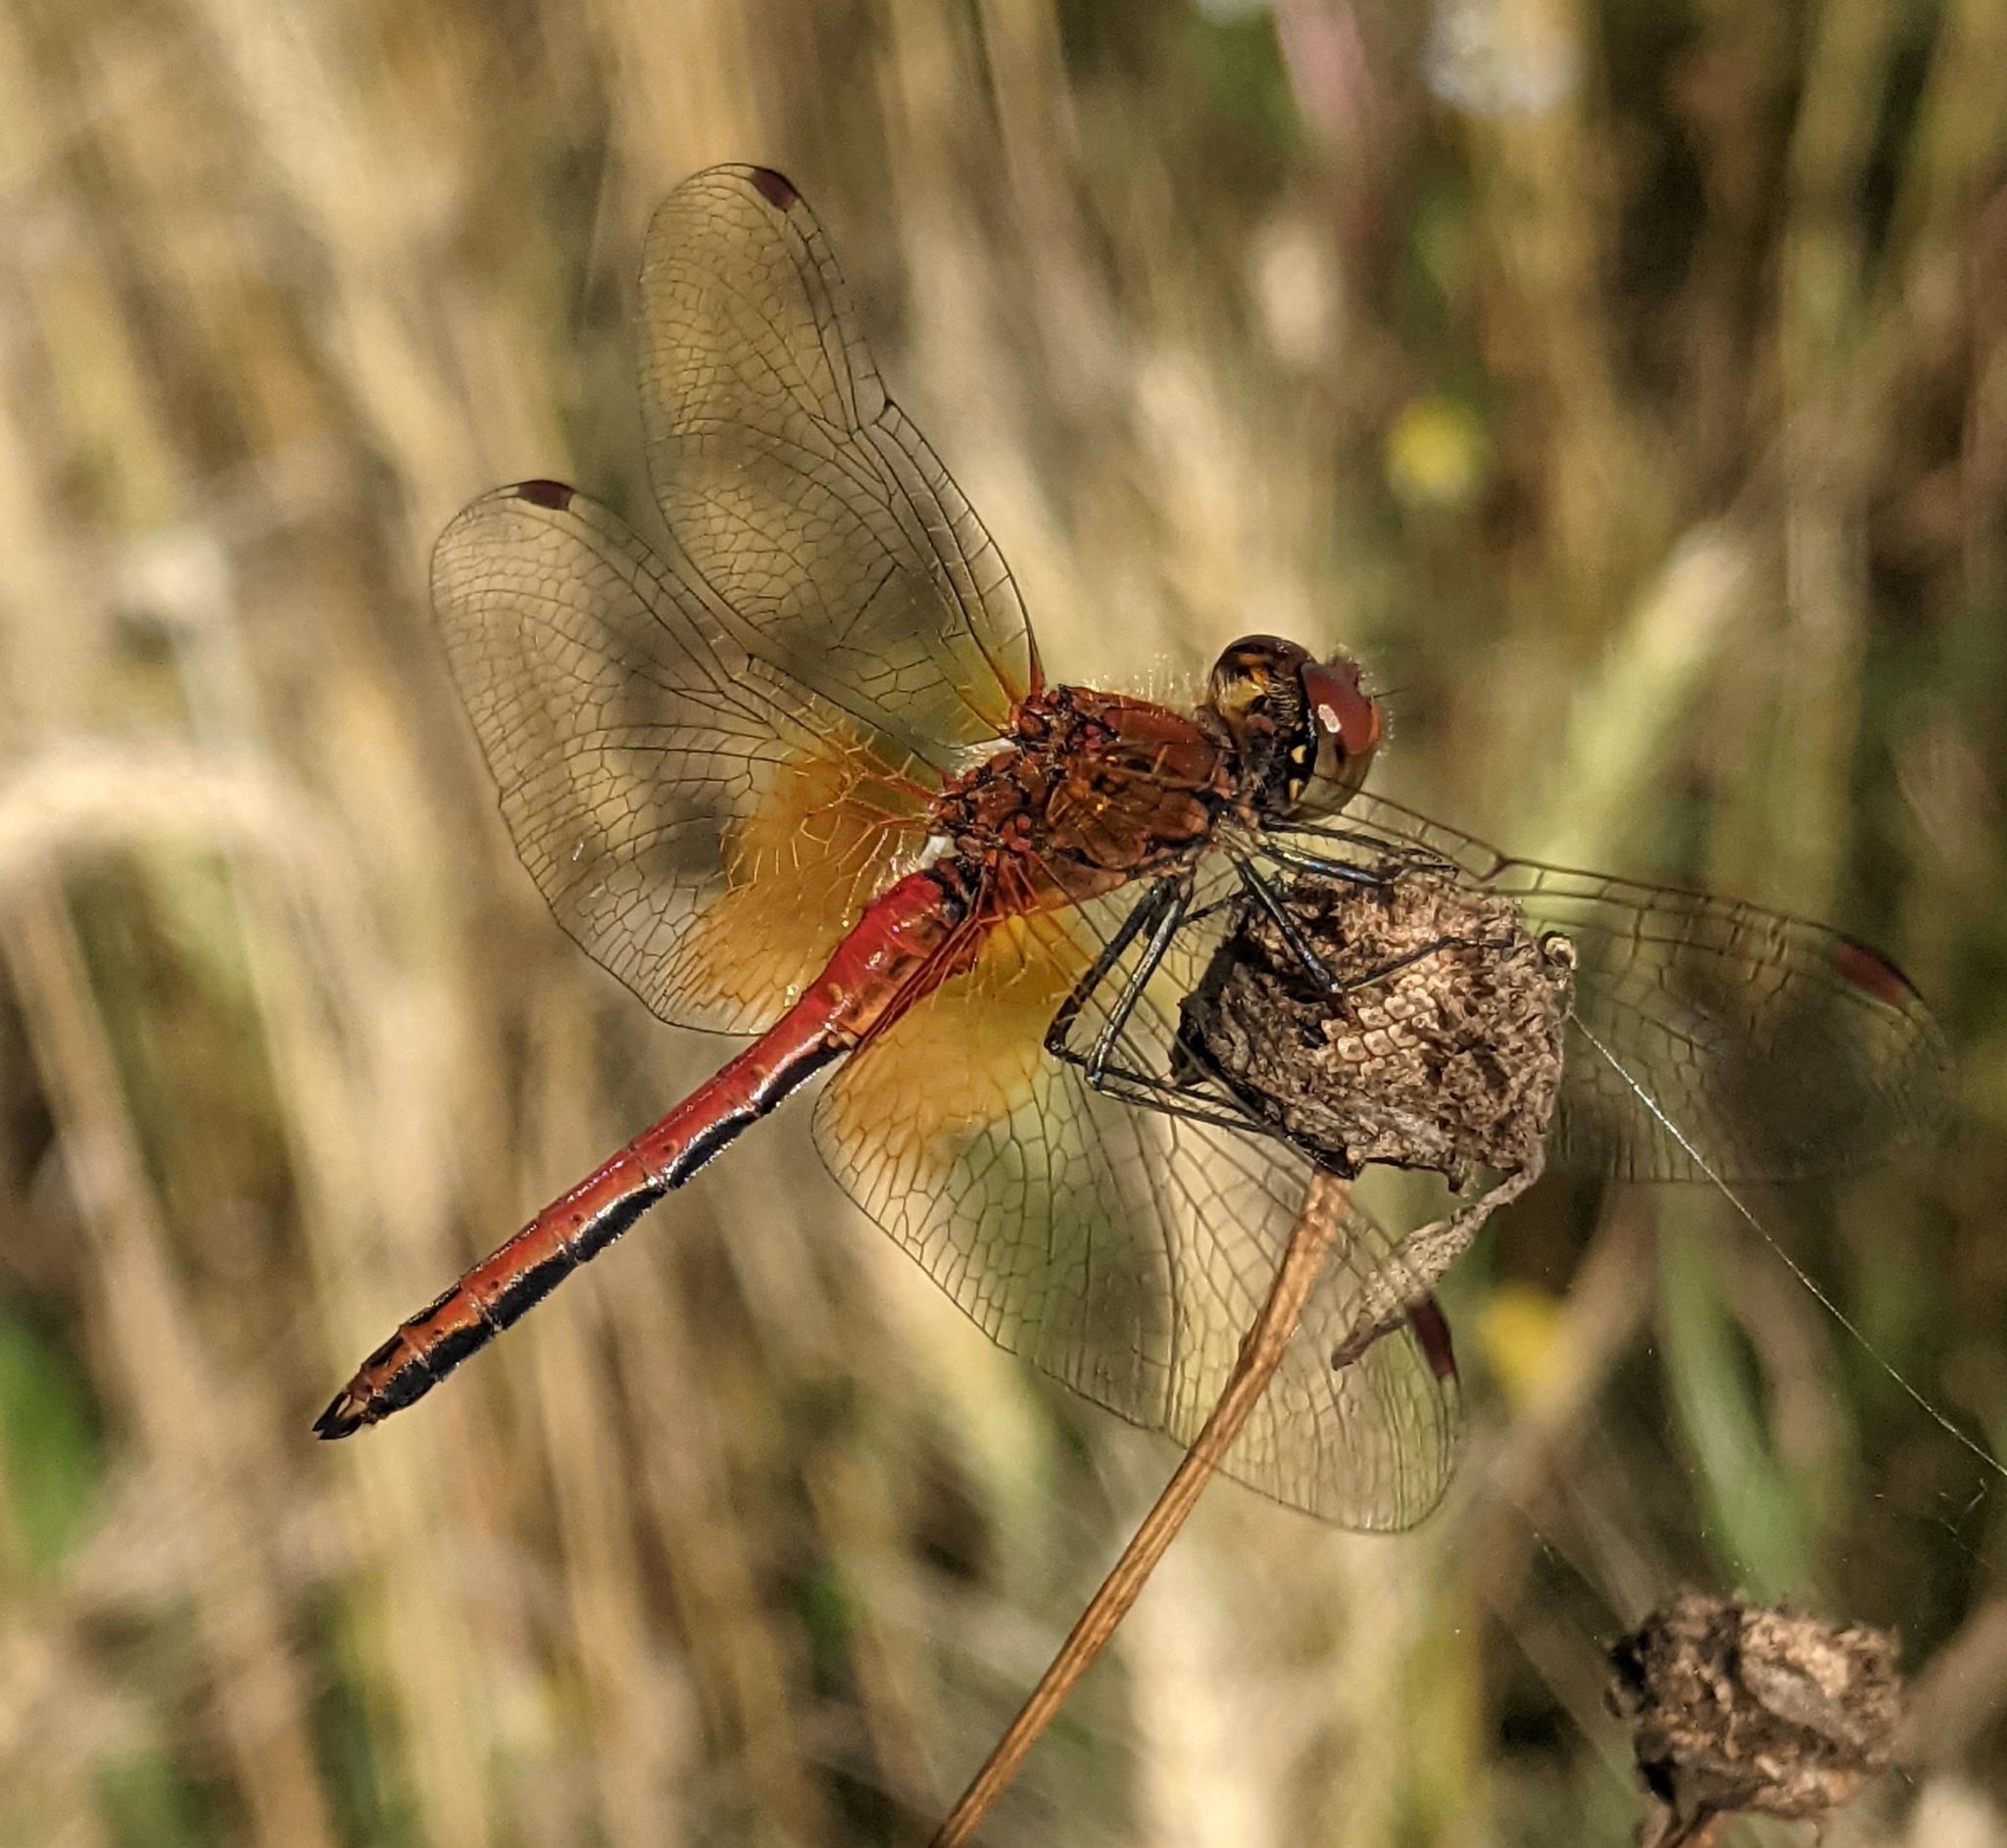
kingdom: Animalia
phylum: Arthropoda
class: Insecta
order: Odonata
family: Libellulidae
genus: Sympetrum
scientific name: Sympetrum flaveolum
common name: Yellow-winged darter
